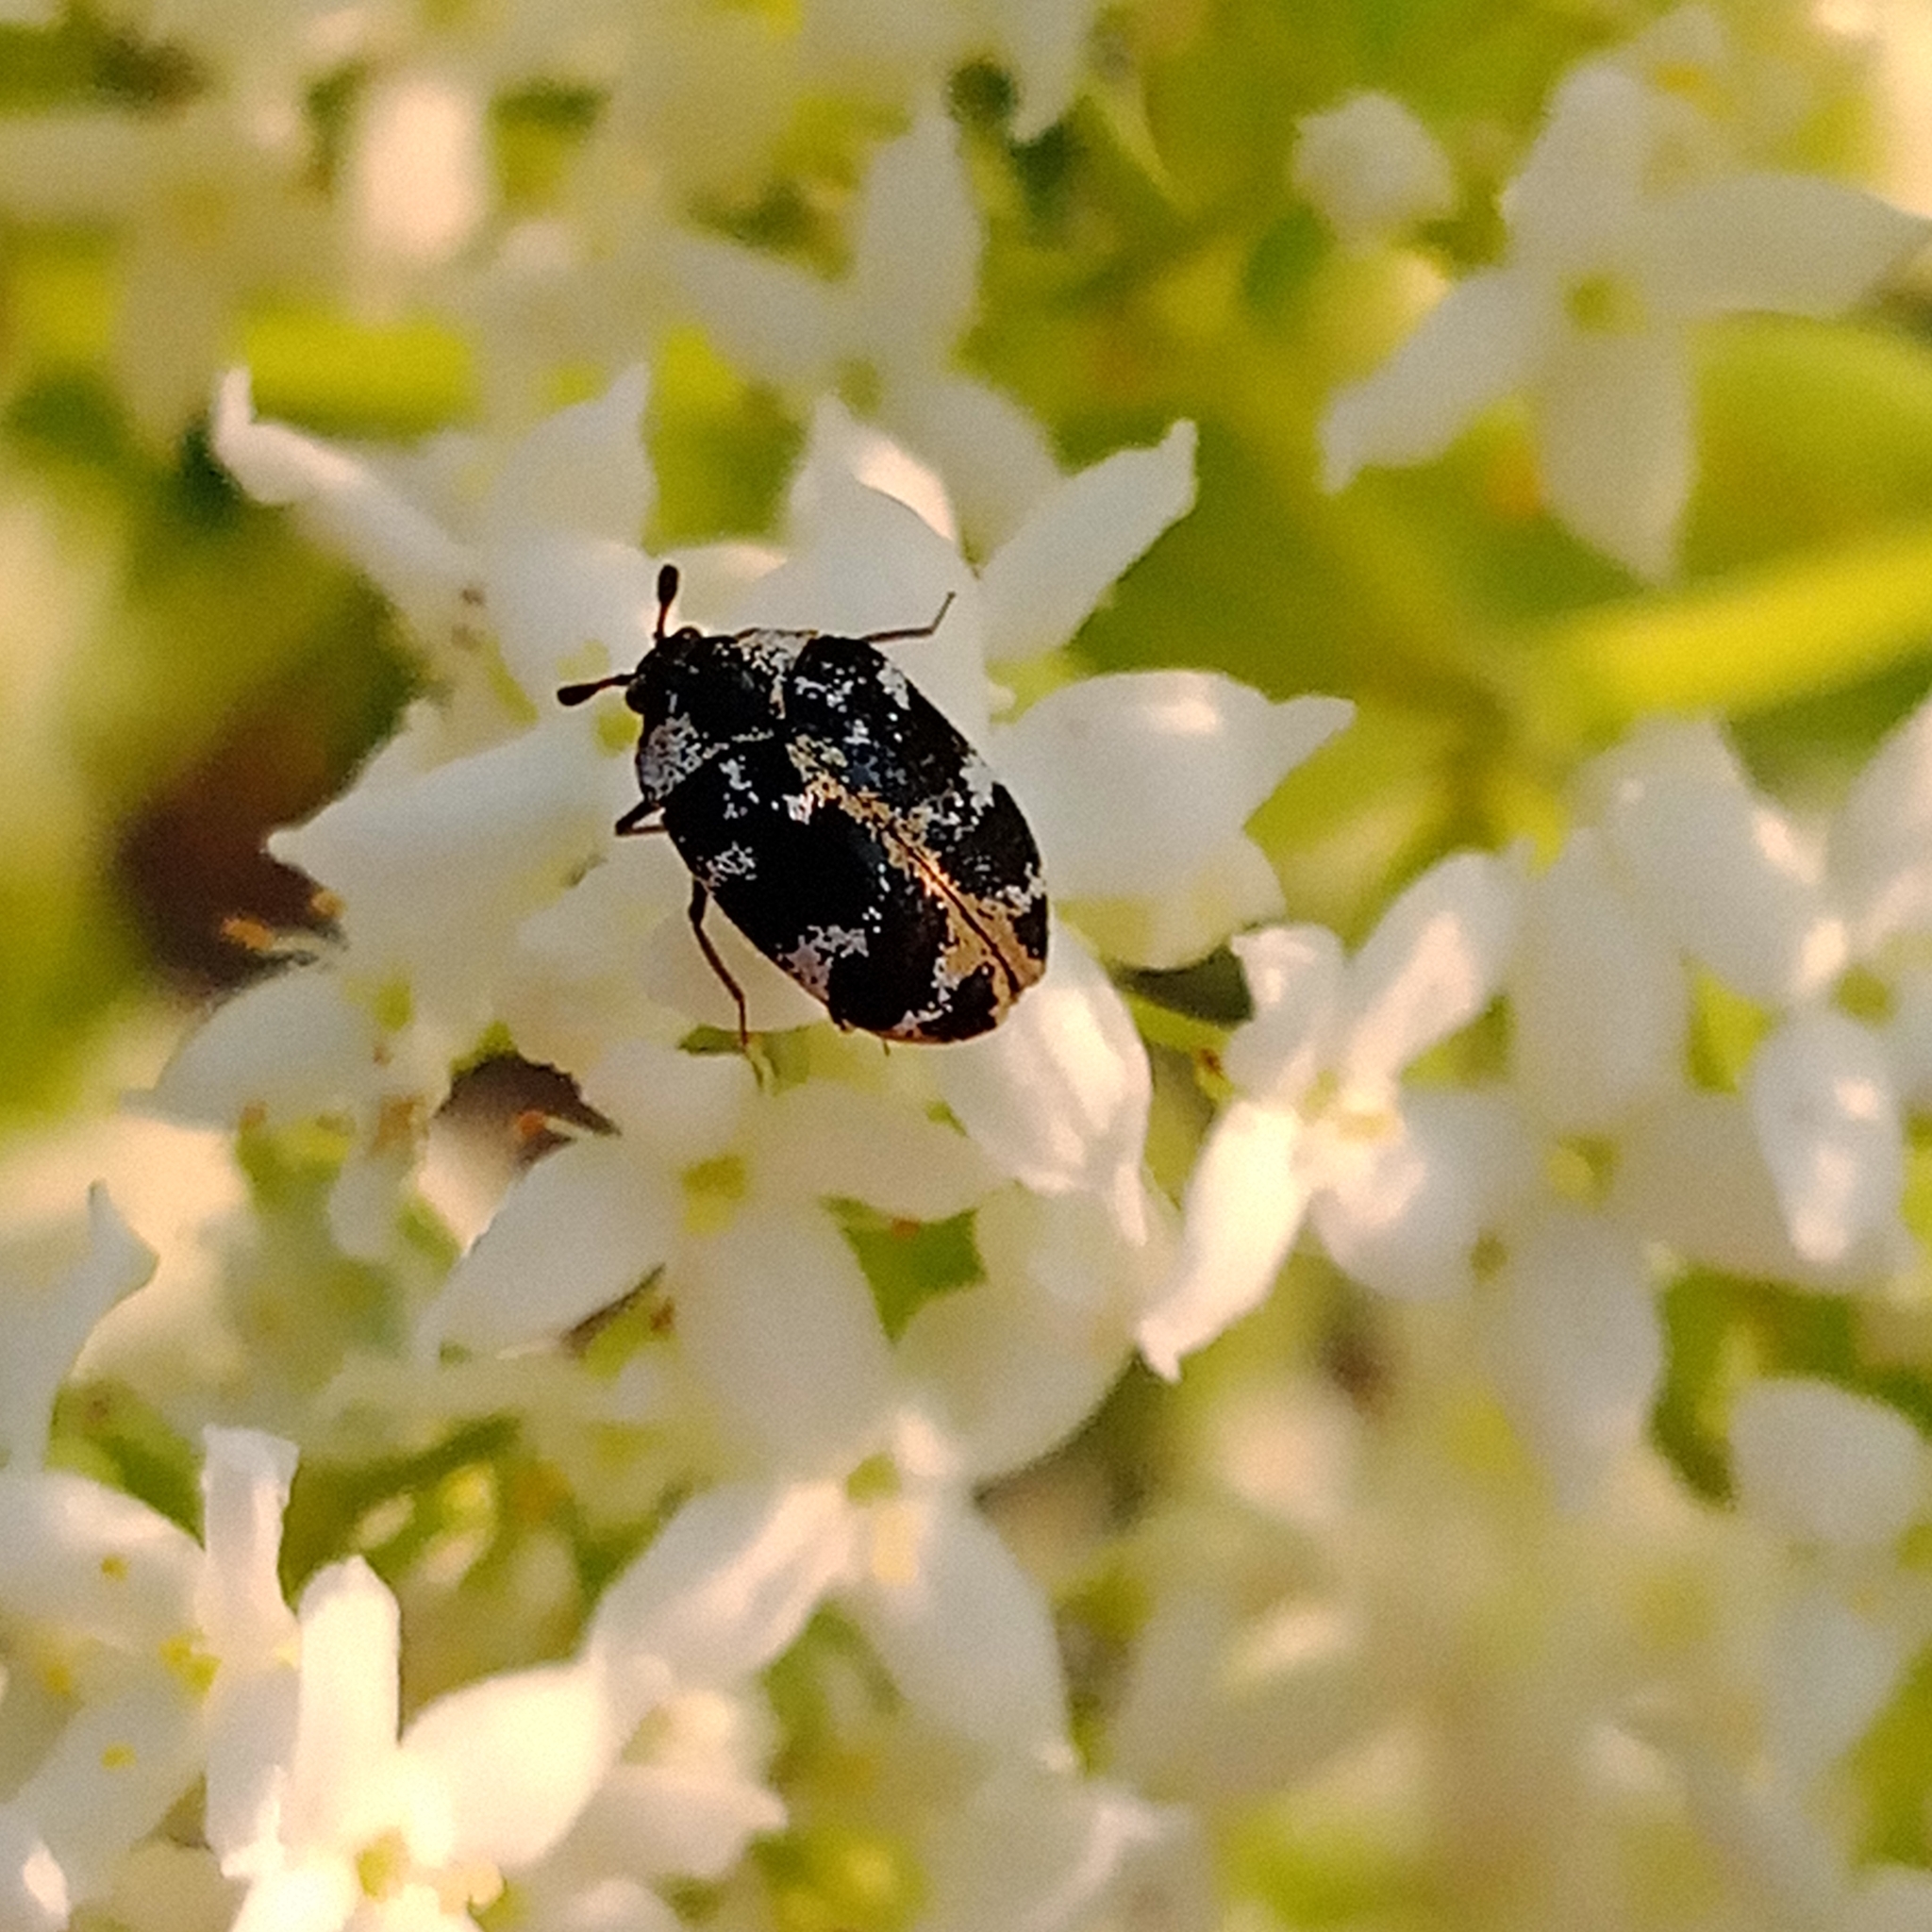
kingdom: Animalia
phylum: Arthropoda
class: Insecta
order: Coleoptera
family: Dermestidae
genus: Anthrenus
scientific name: Anthrenus scrophulariae
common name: Buffalo carpet beetle
